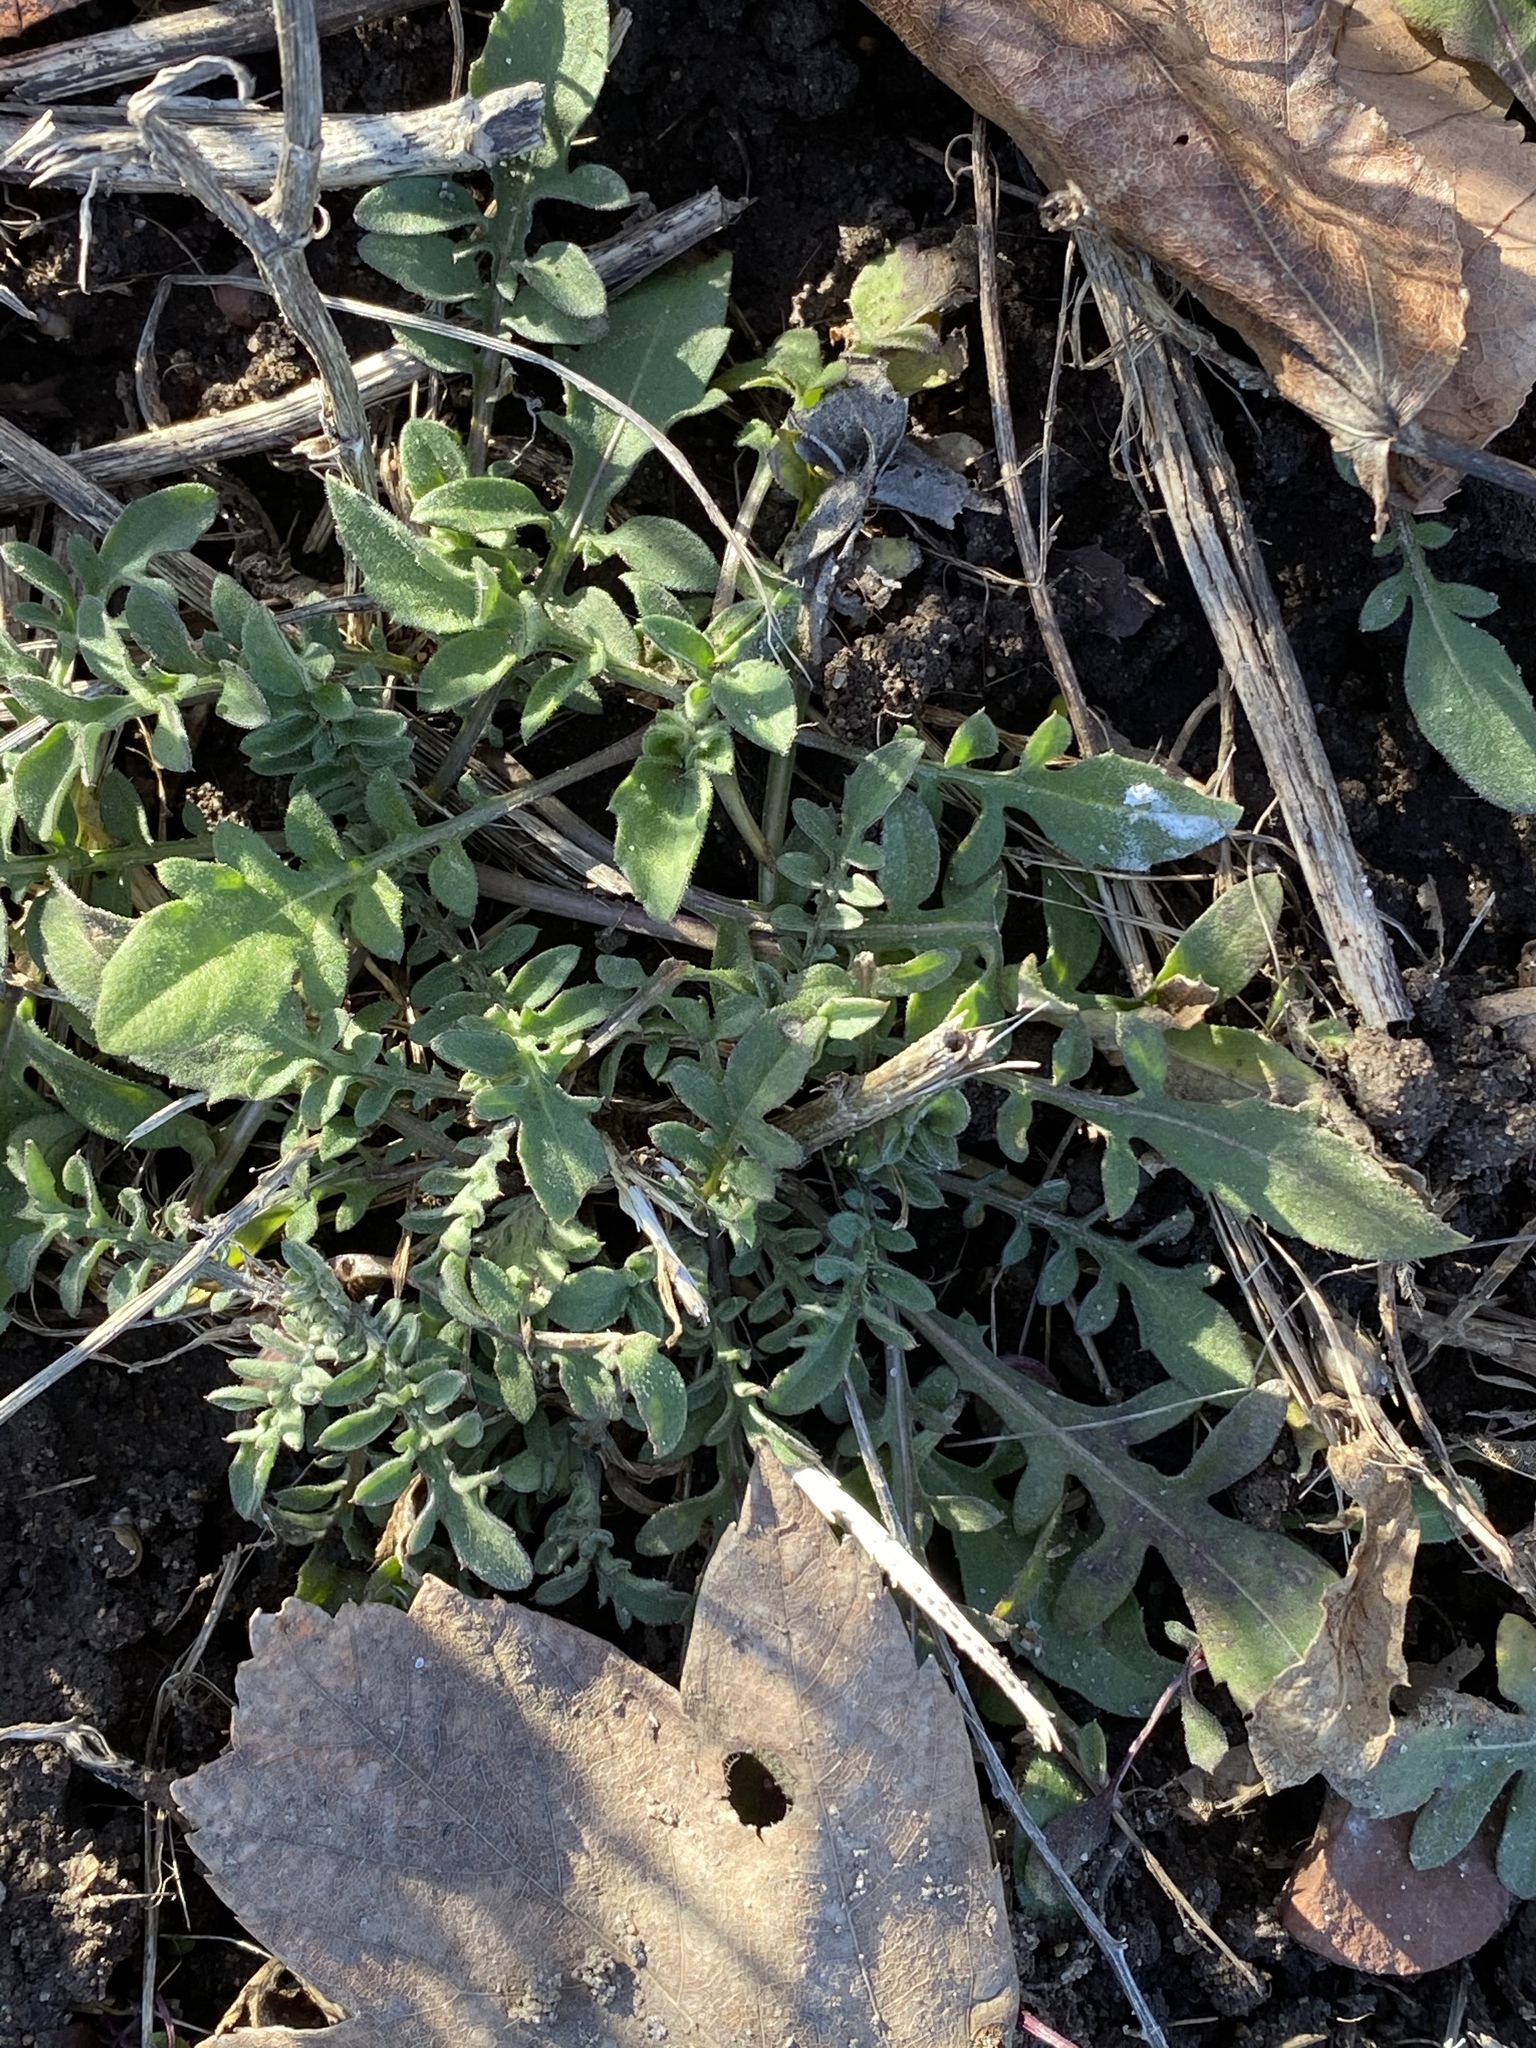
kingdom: Plantae
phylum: Tracheophyta
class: Magnoliopsida
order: Asterales
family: Asteraceae
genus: Centaurea
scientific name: Centaurea stoebe
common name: Spotted knapweed
